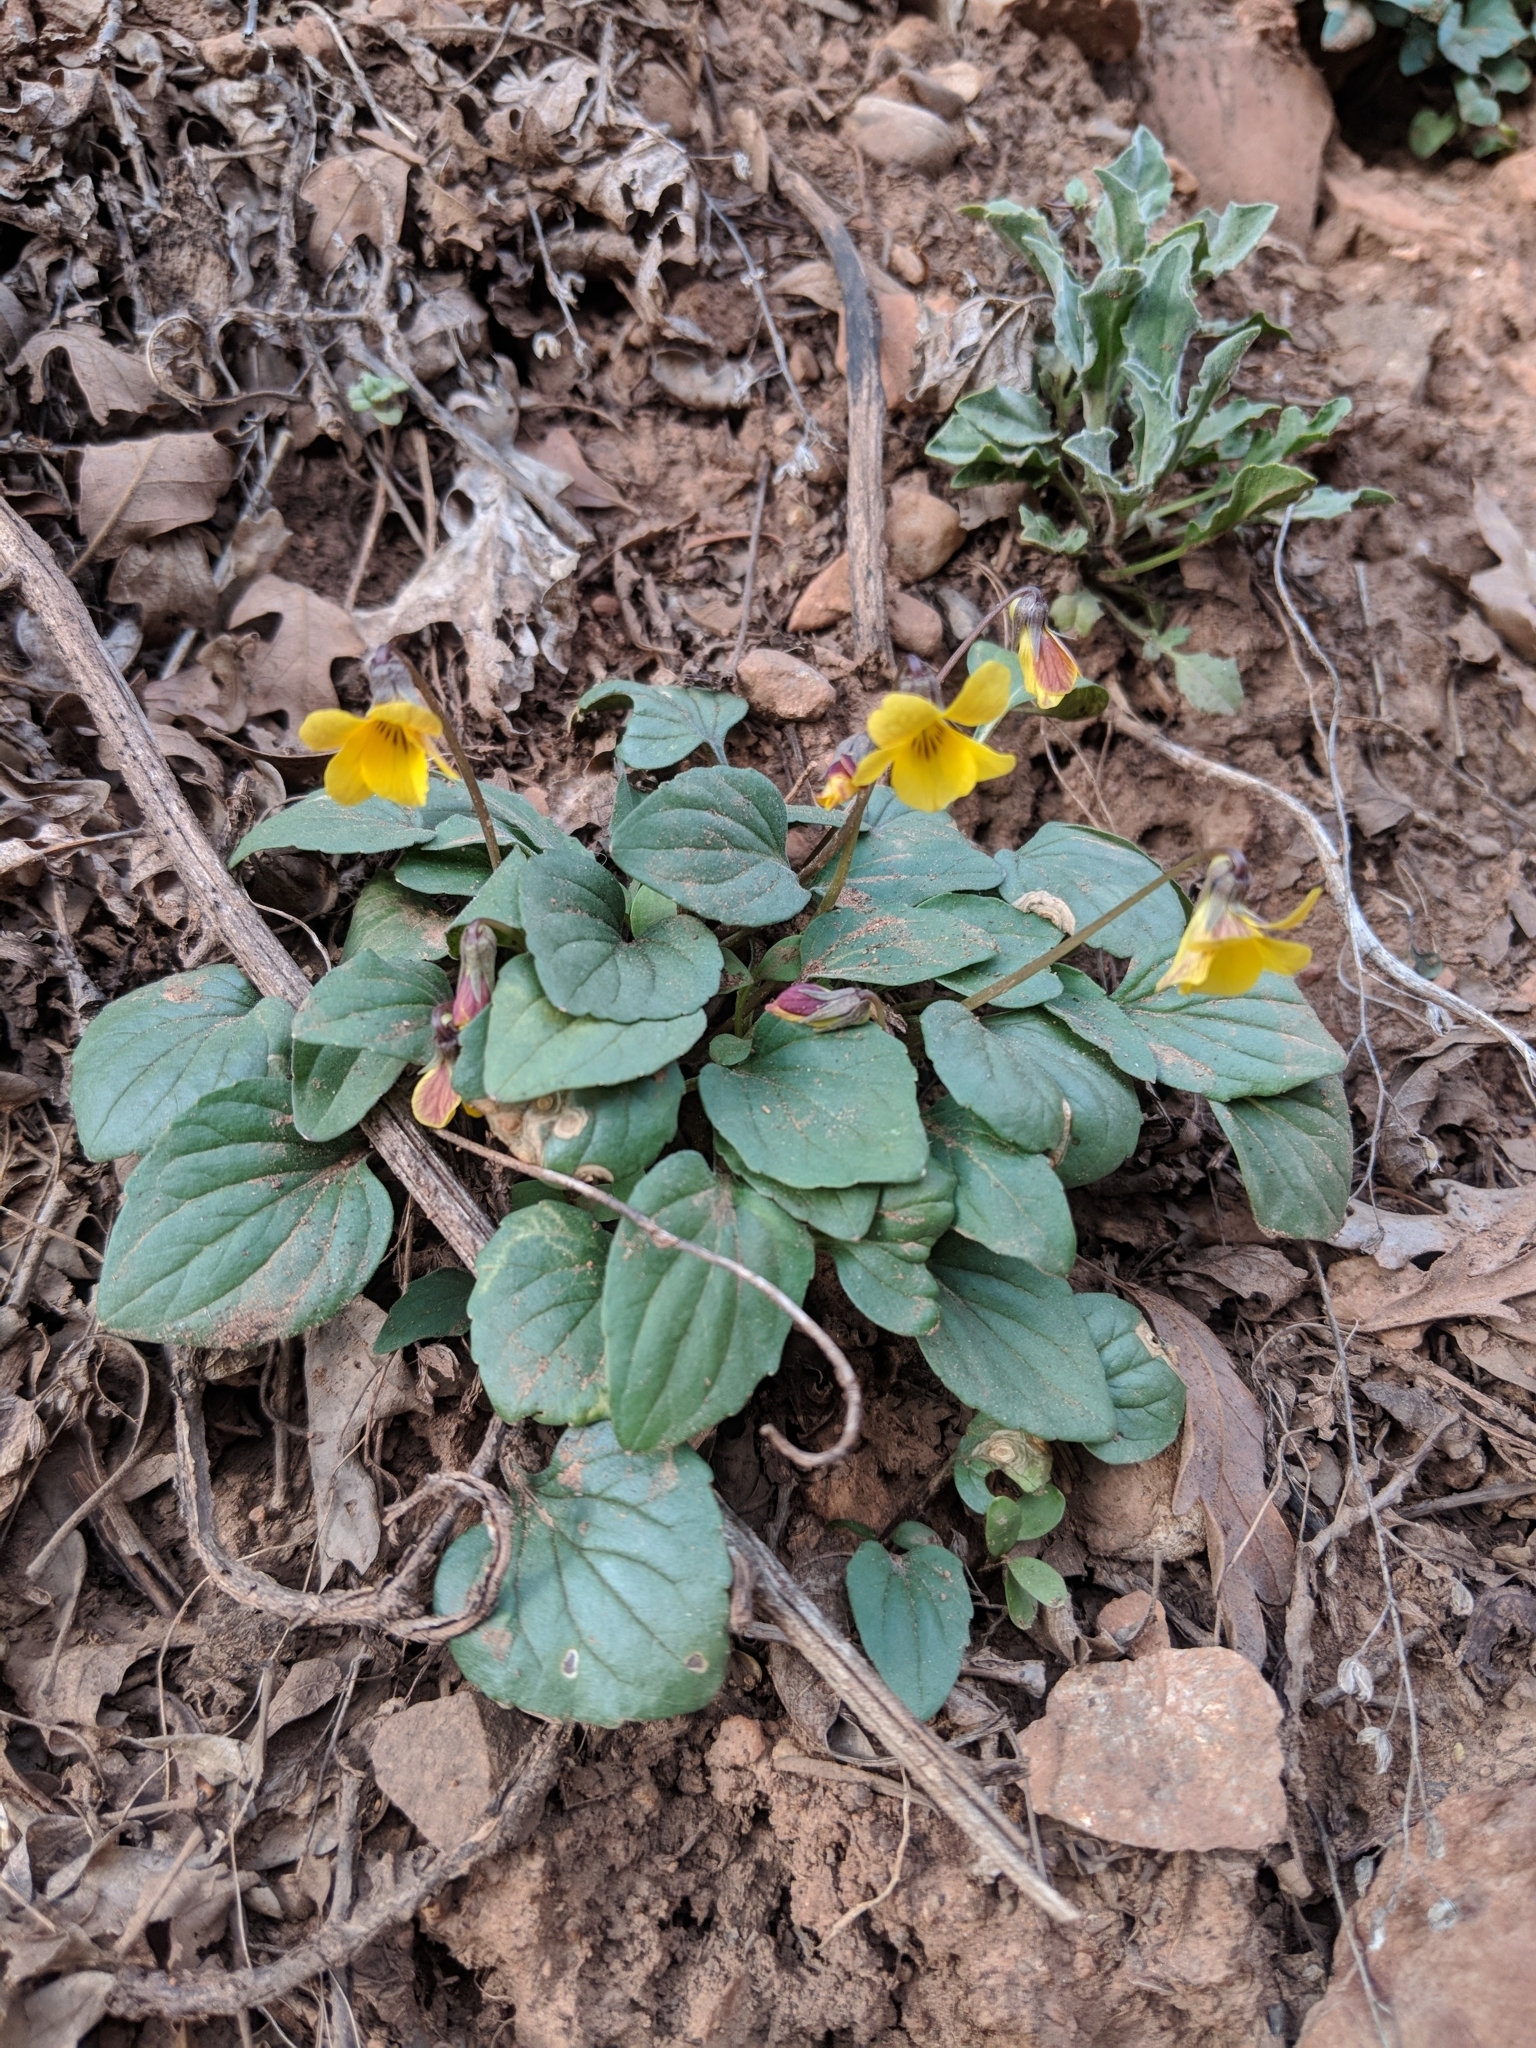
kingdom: Plantae
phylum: Tracheophyta
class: Magnoliopsida
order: Malpighiales
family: Violaceae
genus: Viola
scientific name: Viola purpurea
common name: Pine violet
